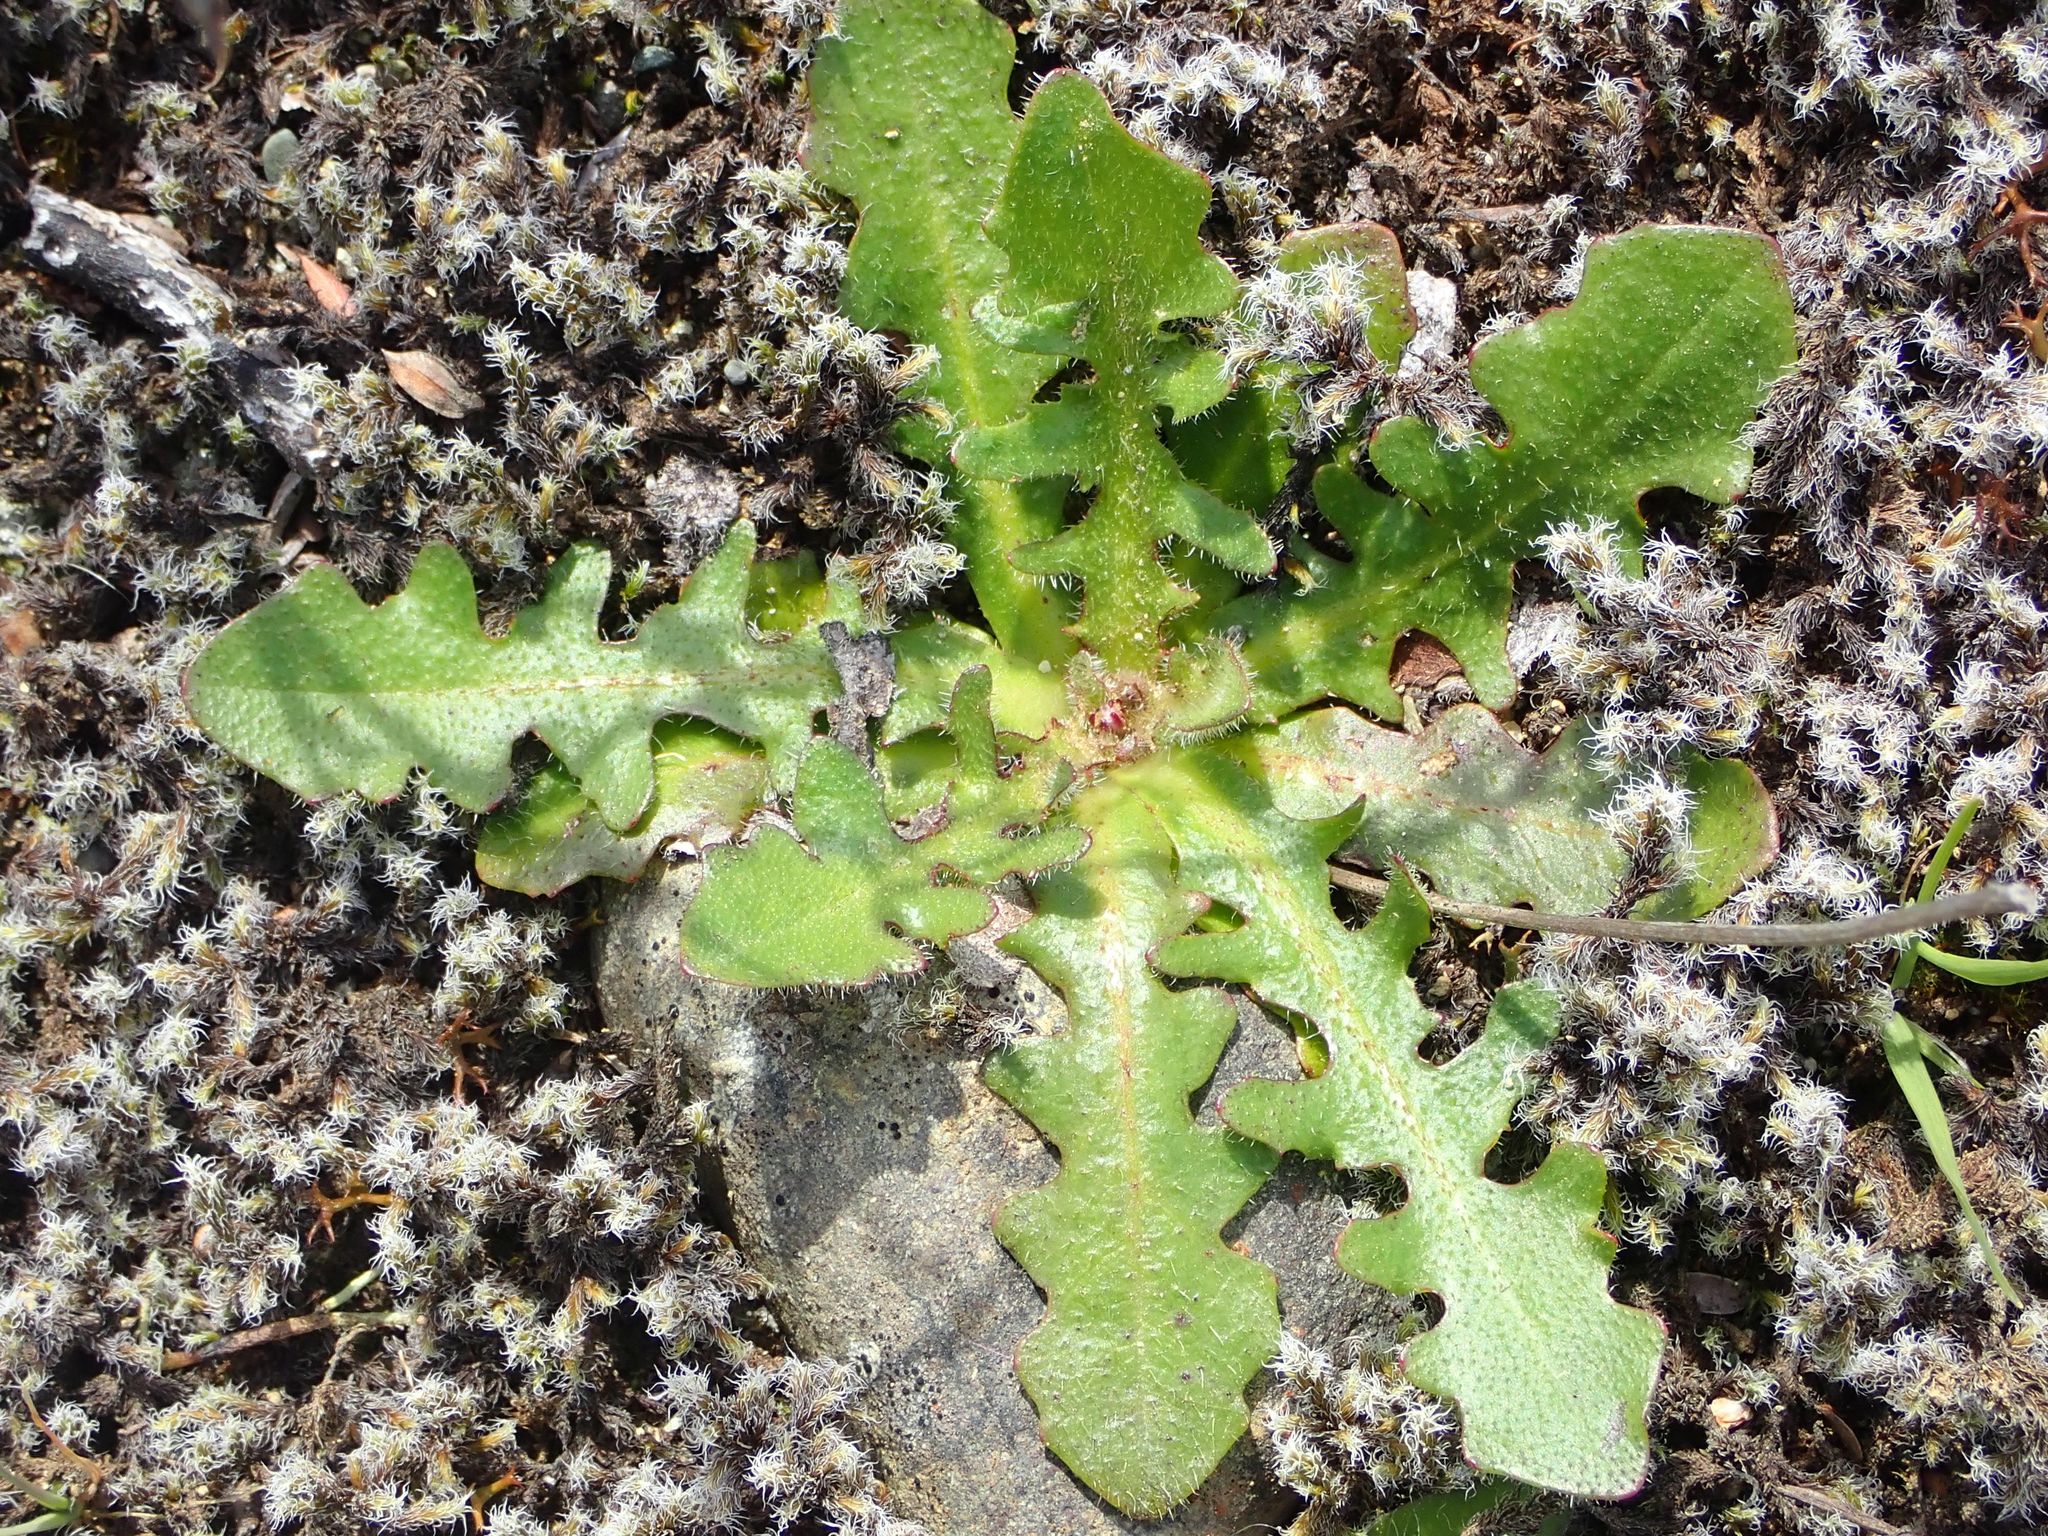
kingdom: Plantae
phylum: Tracheophyta
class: Magnoliopsida
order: Asterales
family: Asteraceae
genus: Hypochaeris
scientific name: Hypochaeris radicata
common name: Flatweed
